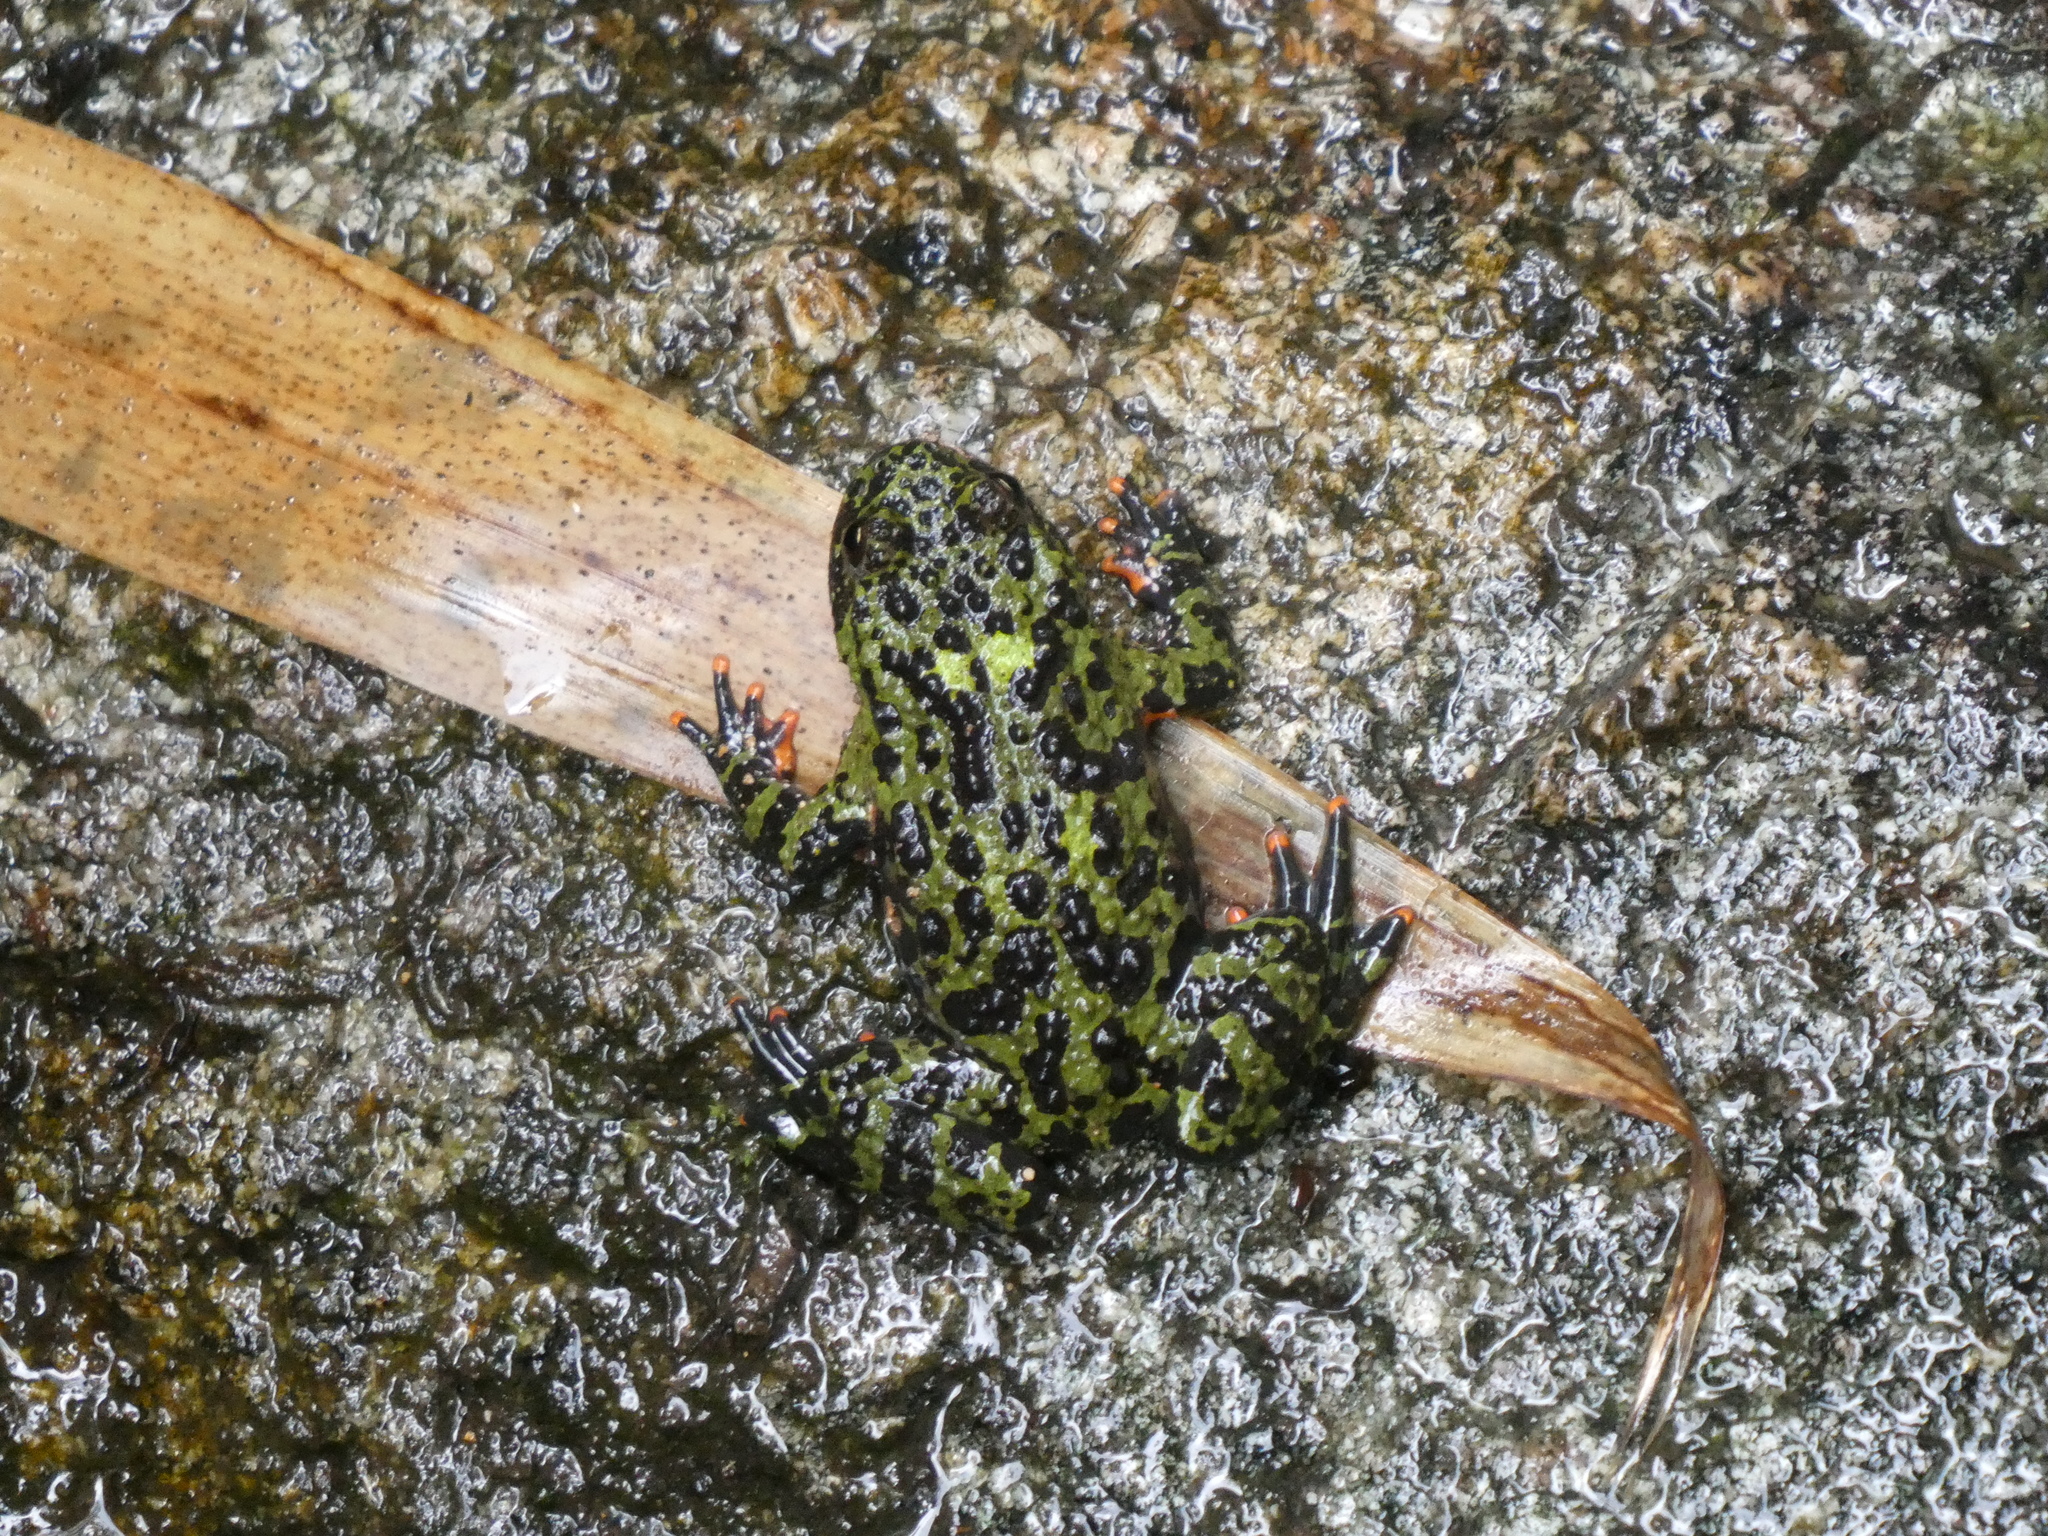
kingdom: Animalia
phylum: Chordata
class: Amphibia
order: Anura
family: Bombinatoridae
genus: Bombina
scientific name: Bombina orientalis
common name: Oriental firebelly toad
